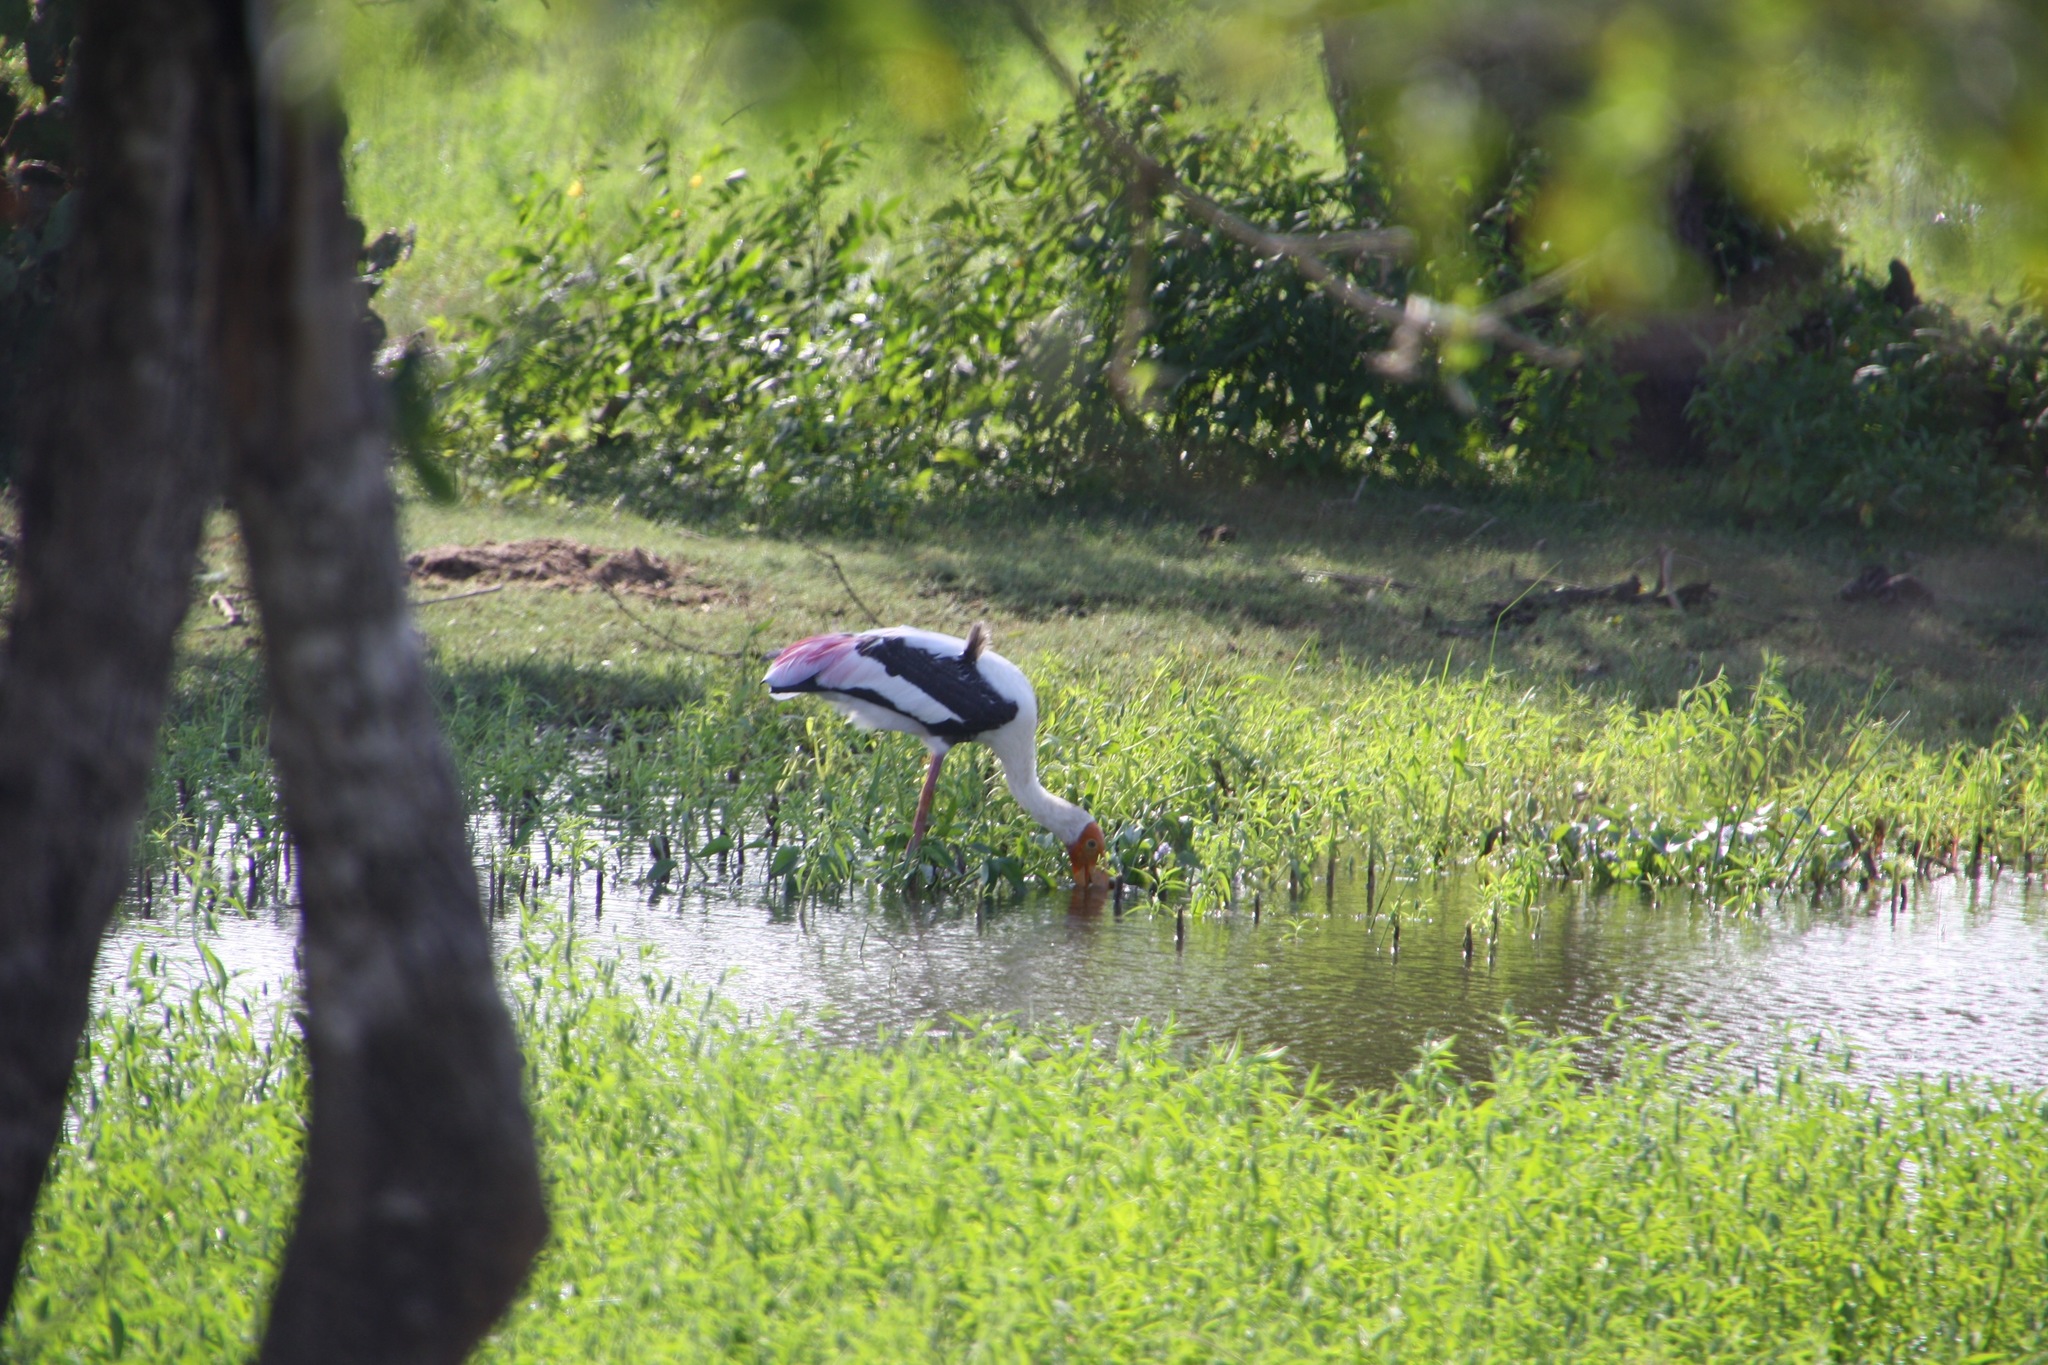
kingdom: Animalia
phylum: Chordata
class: Aves
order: Ciconiiformes
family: Ciconiidae
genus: Mycteria
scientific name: Mycteria leucocephala
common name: Painted stork
